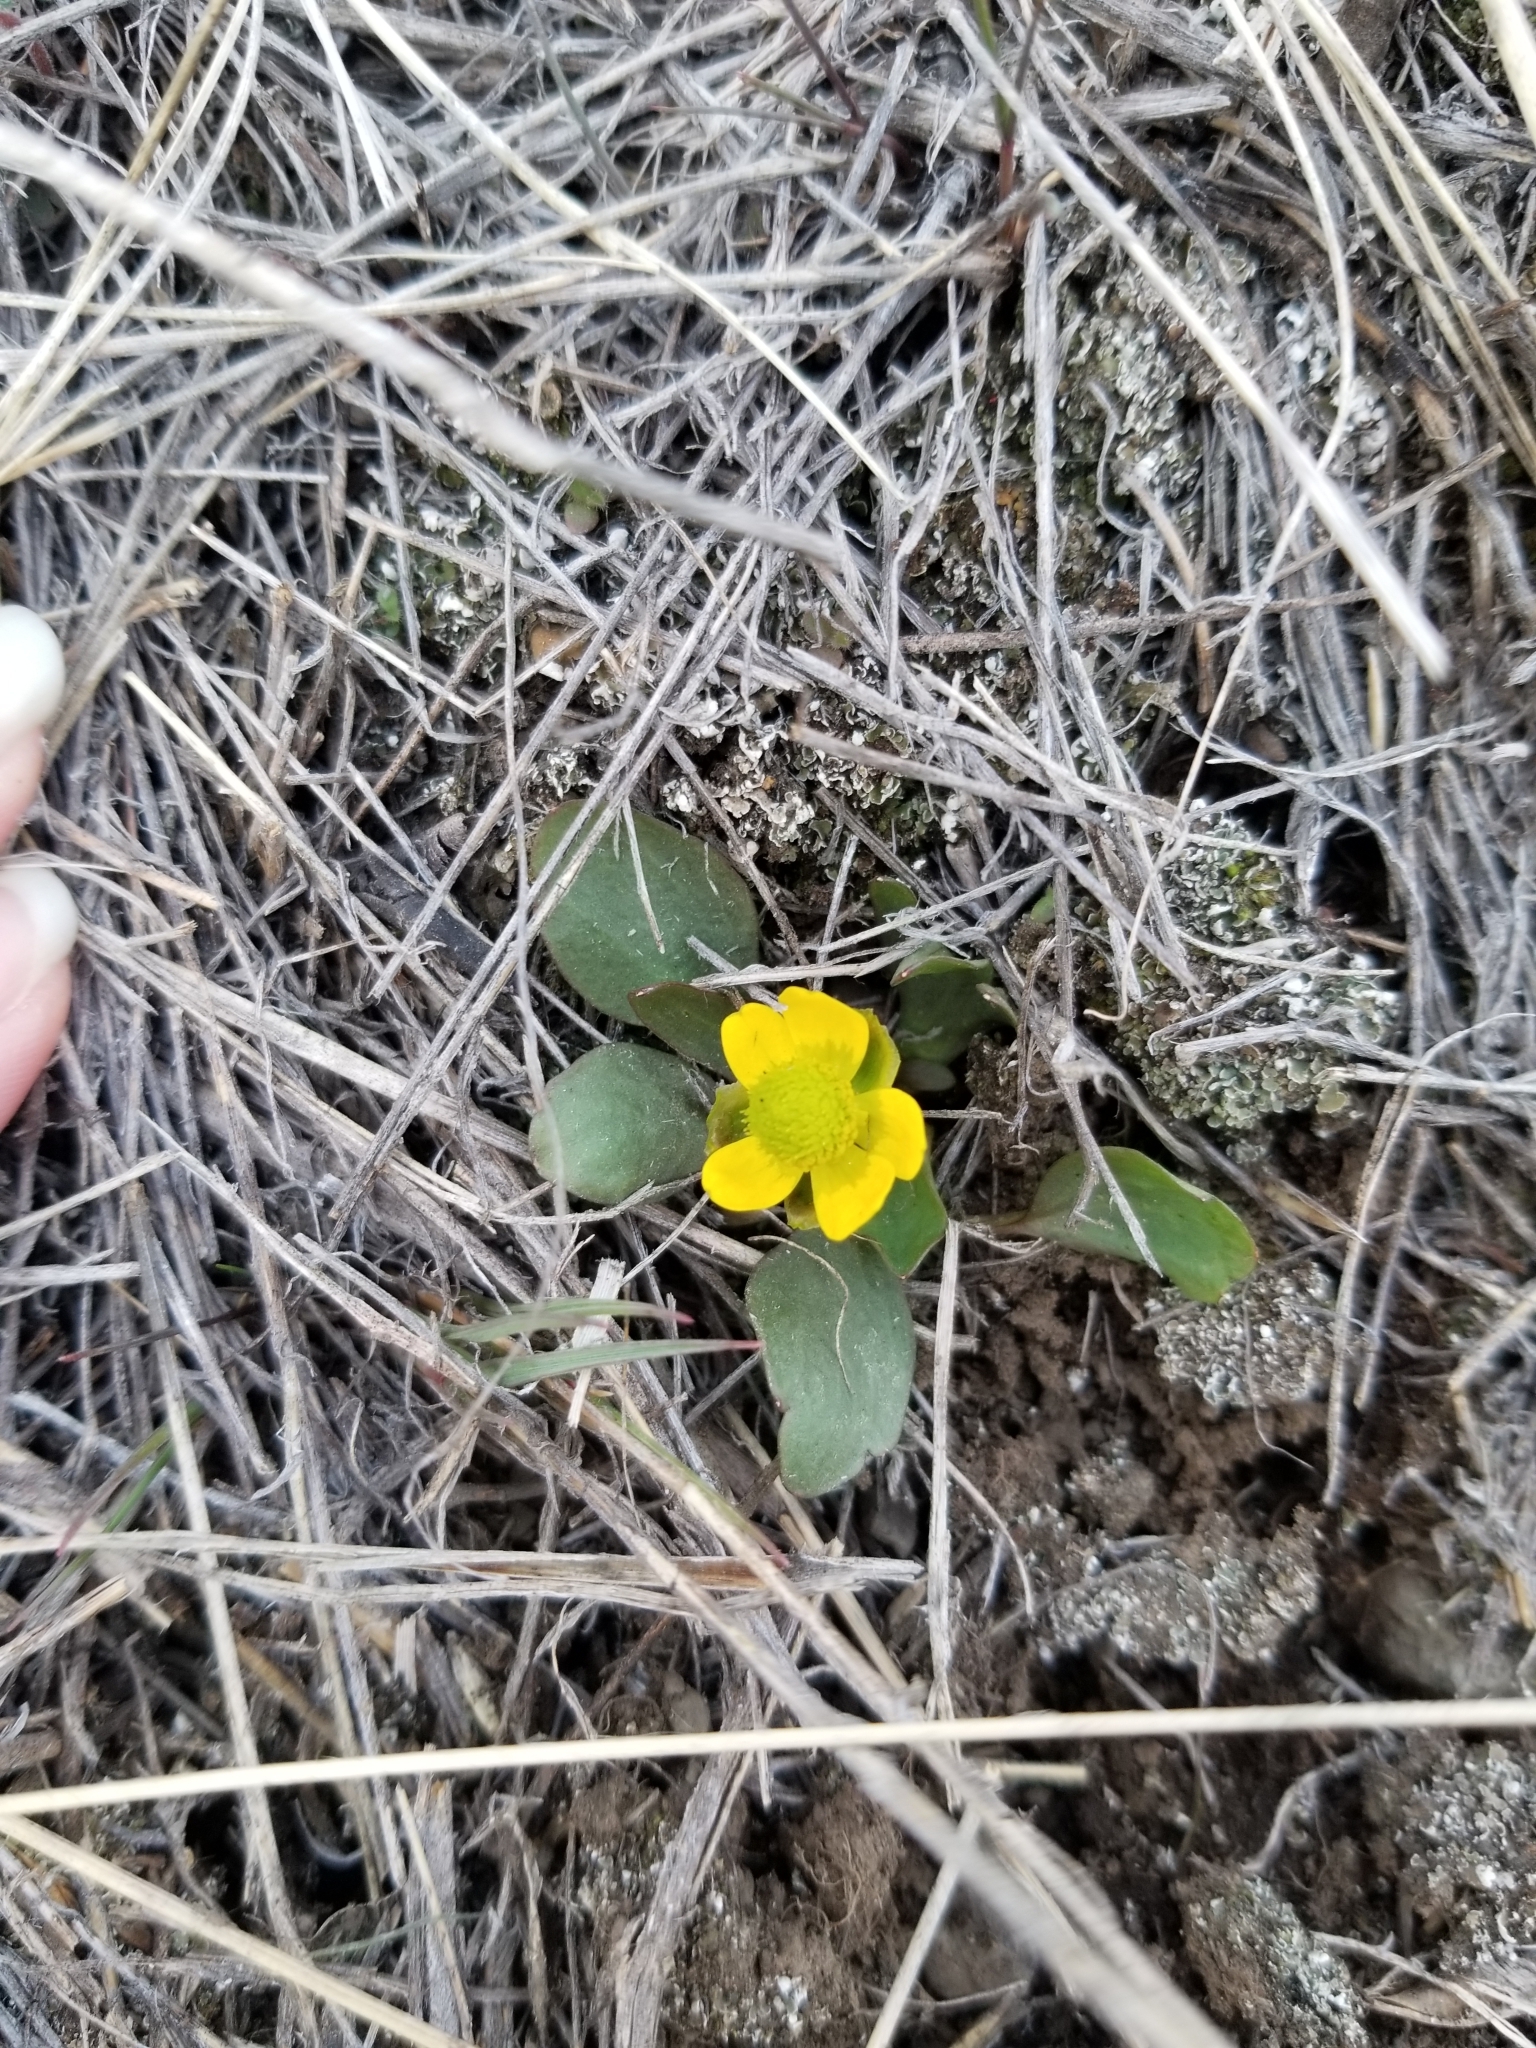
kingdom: Plantae
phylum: Tracheophyta
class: Magnoliopsida
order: Ranunculales
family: Ranunculaceae
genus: Ranunculus
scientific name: Ranunculus glaberrimus
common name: Sagebrush buttercup
